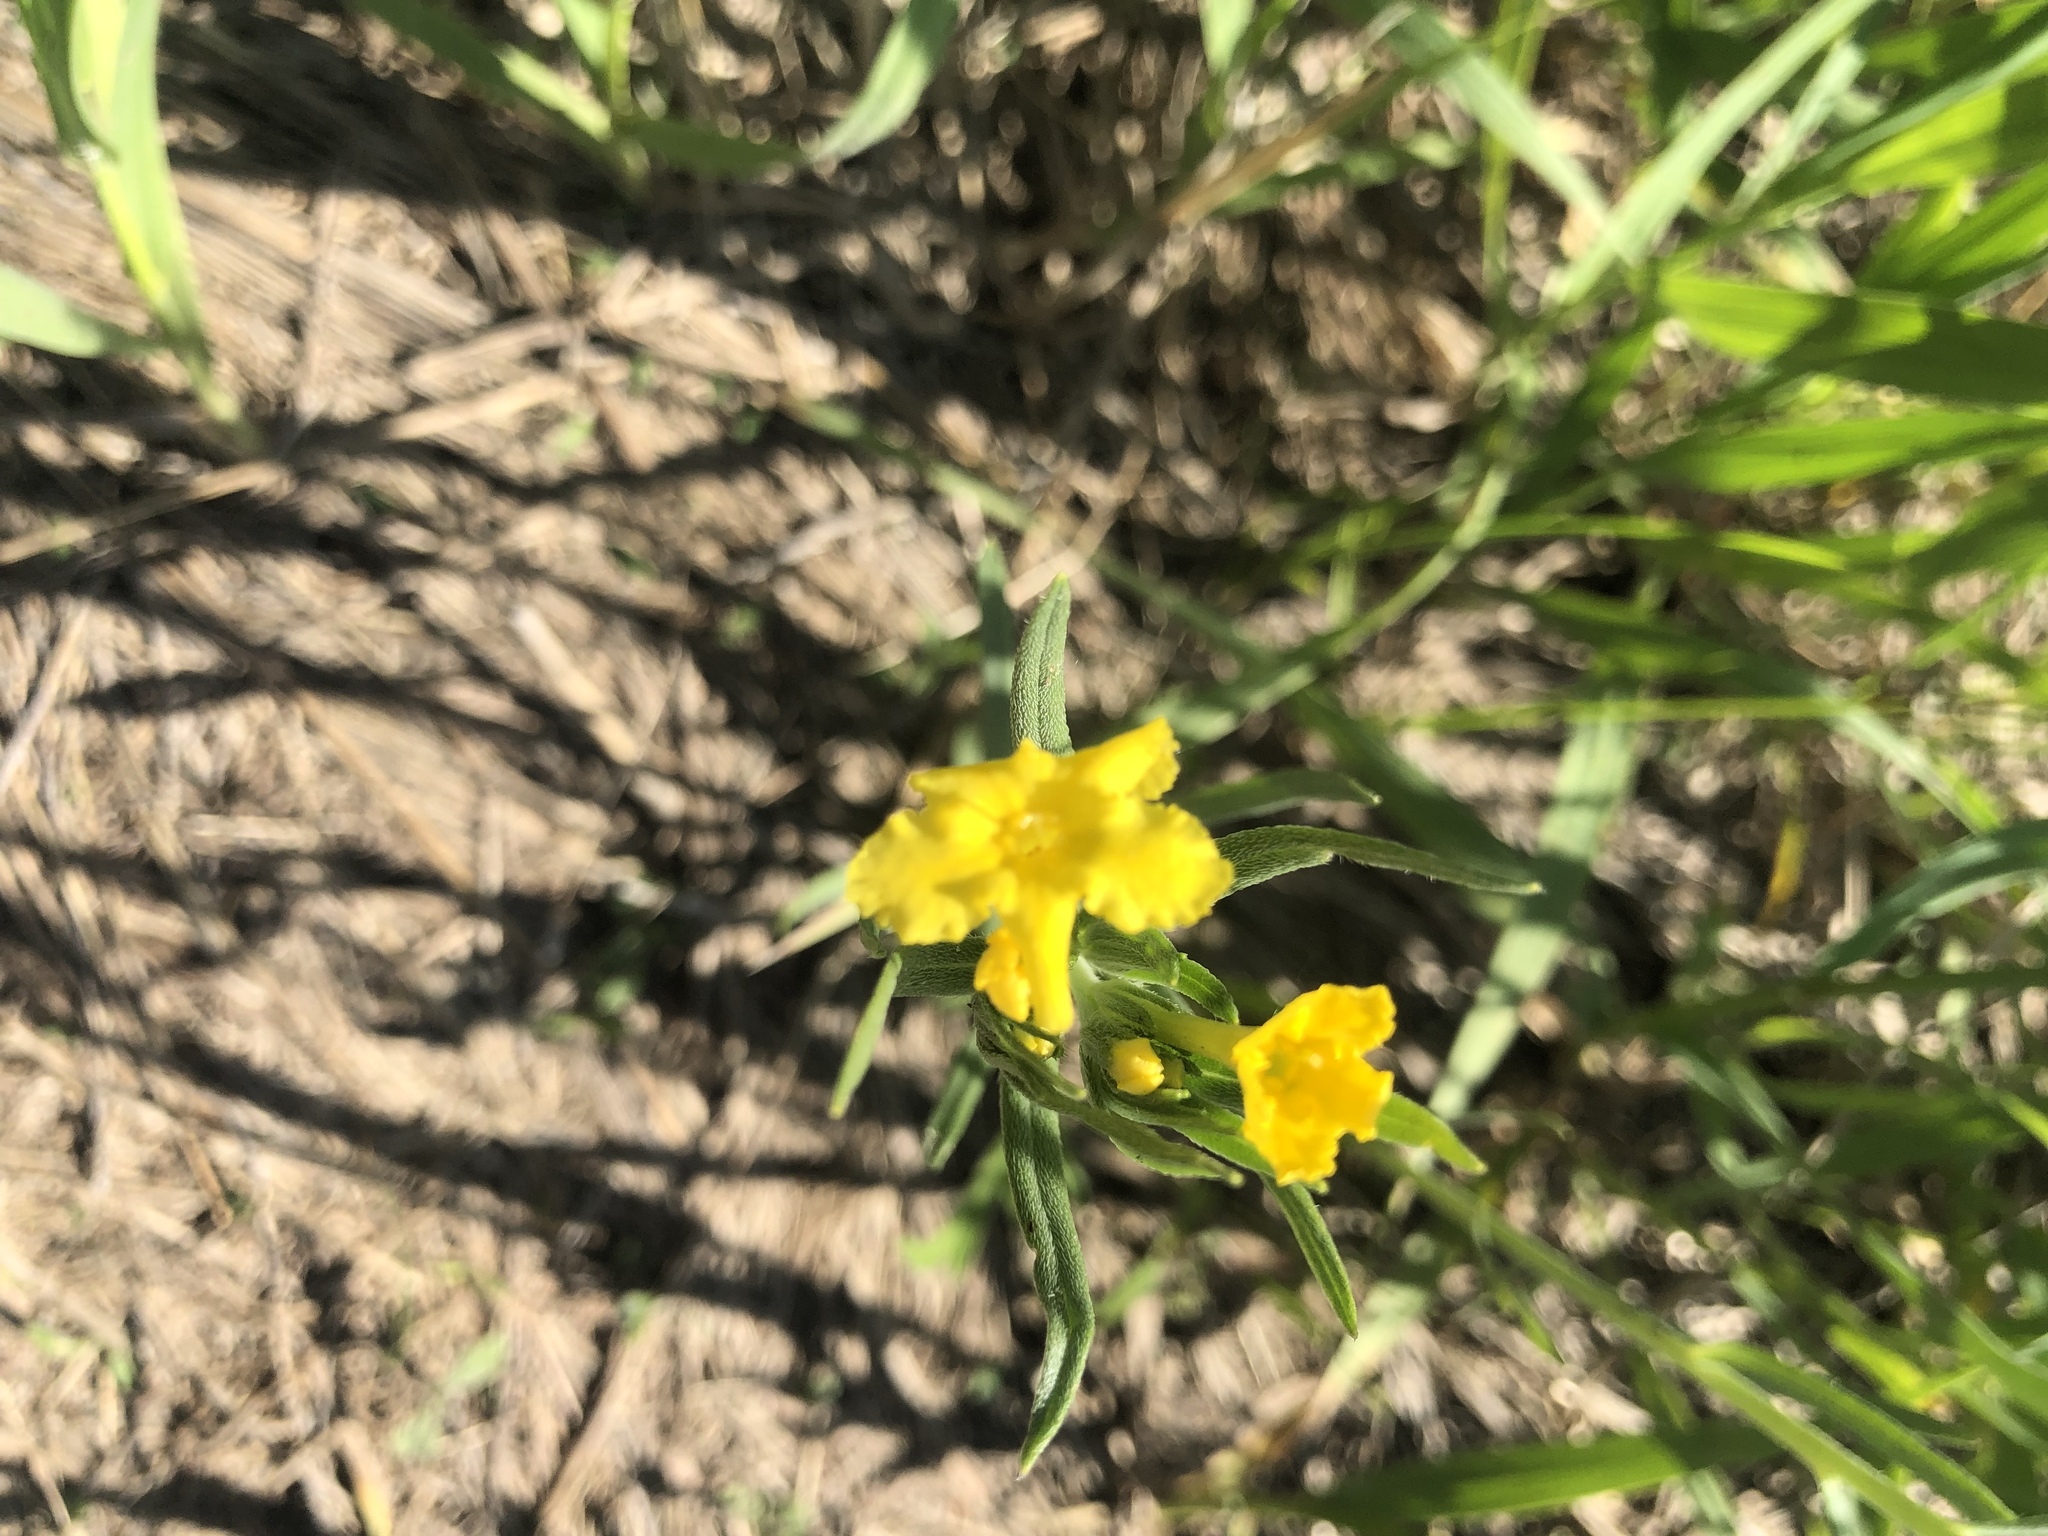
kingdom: Plantae
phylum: Tracheophyta
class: Magnoliopsida
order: Boraginales
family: Boraginaceae
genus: Lithospermum
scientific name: Lithospermum incisum
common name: Fringed gromwell
